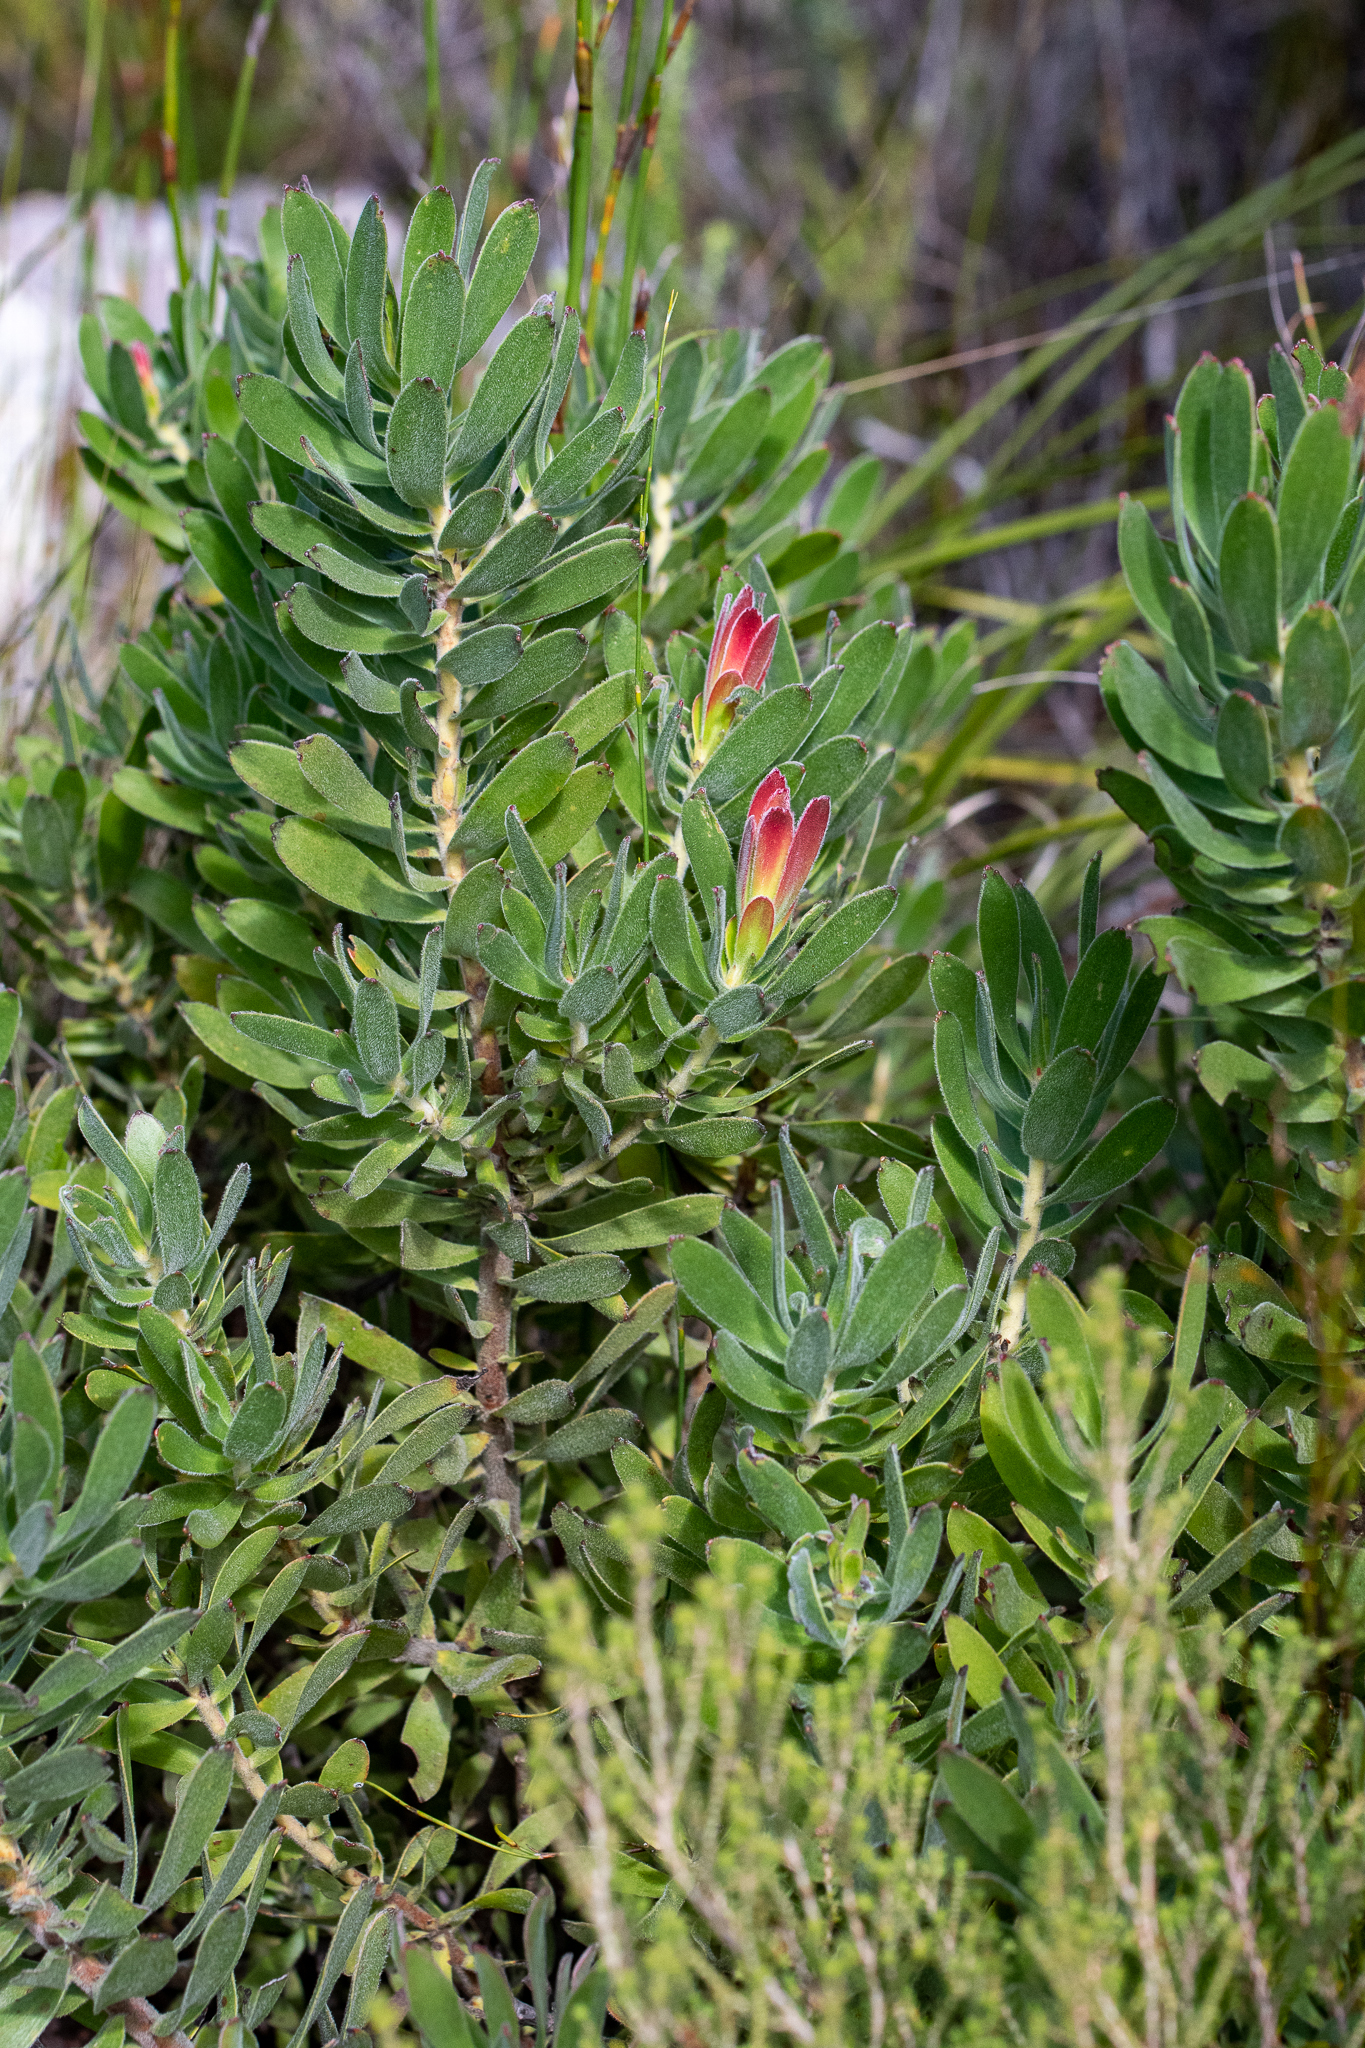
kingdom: Plantae
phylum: Tracheophyta
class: Magnoliopsida
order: Proteales
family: Proteaceae
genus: Mimetes
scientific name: Mimetes cucullatus
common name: Common pagoda
